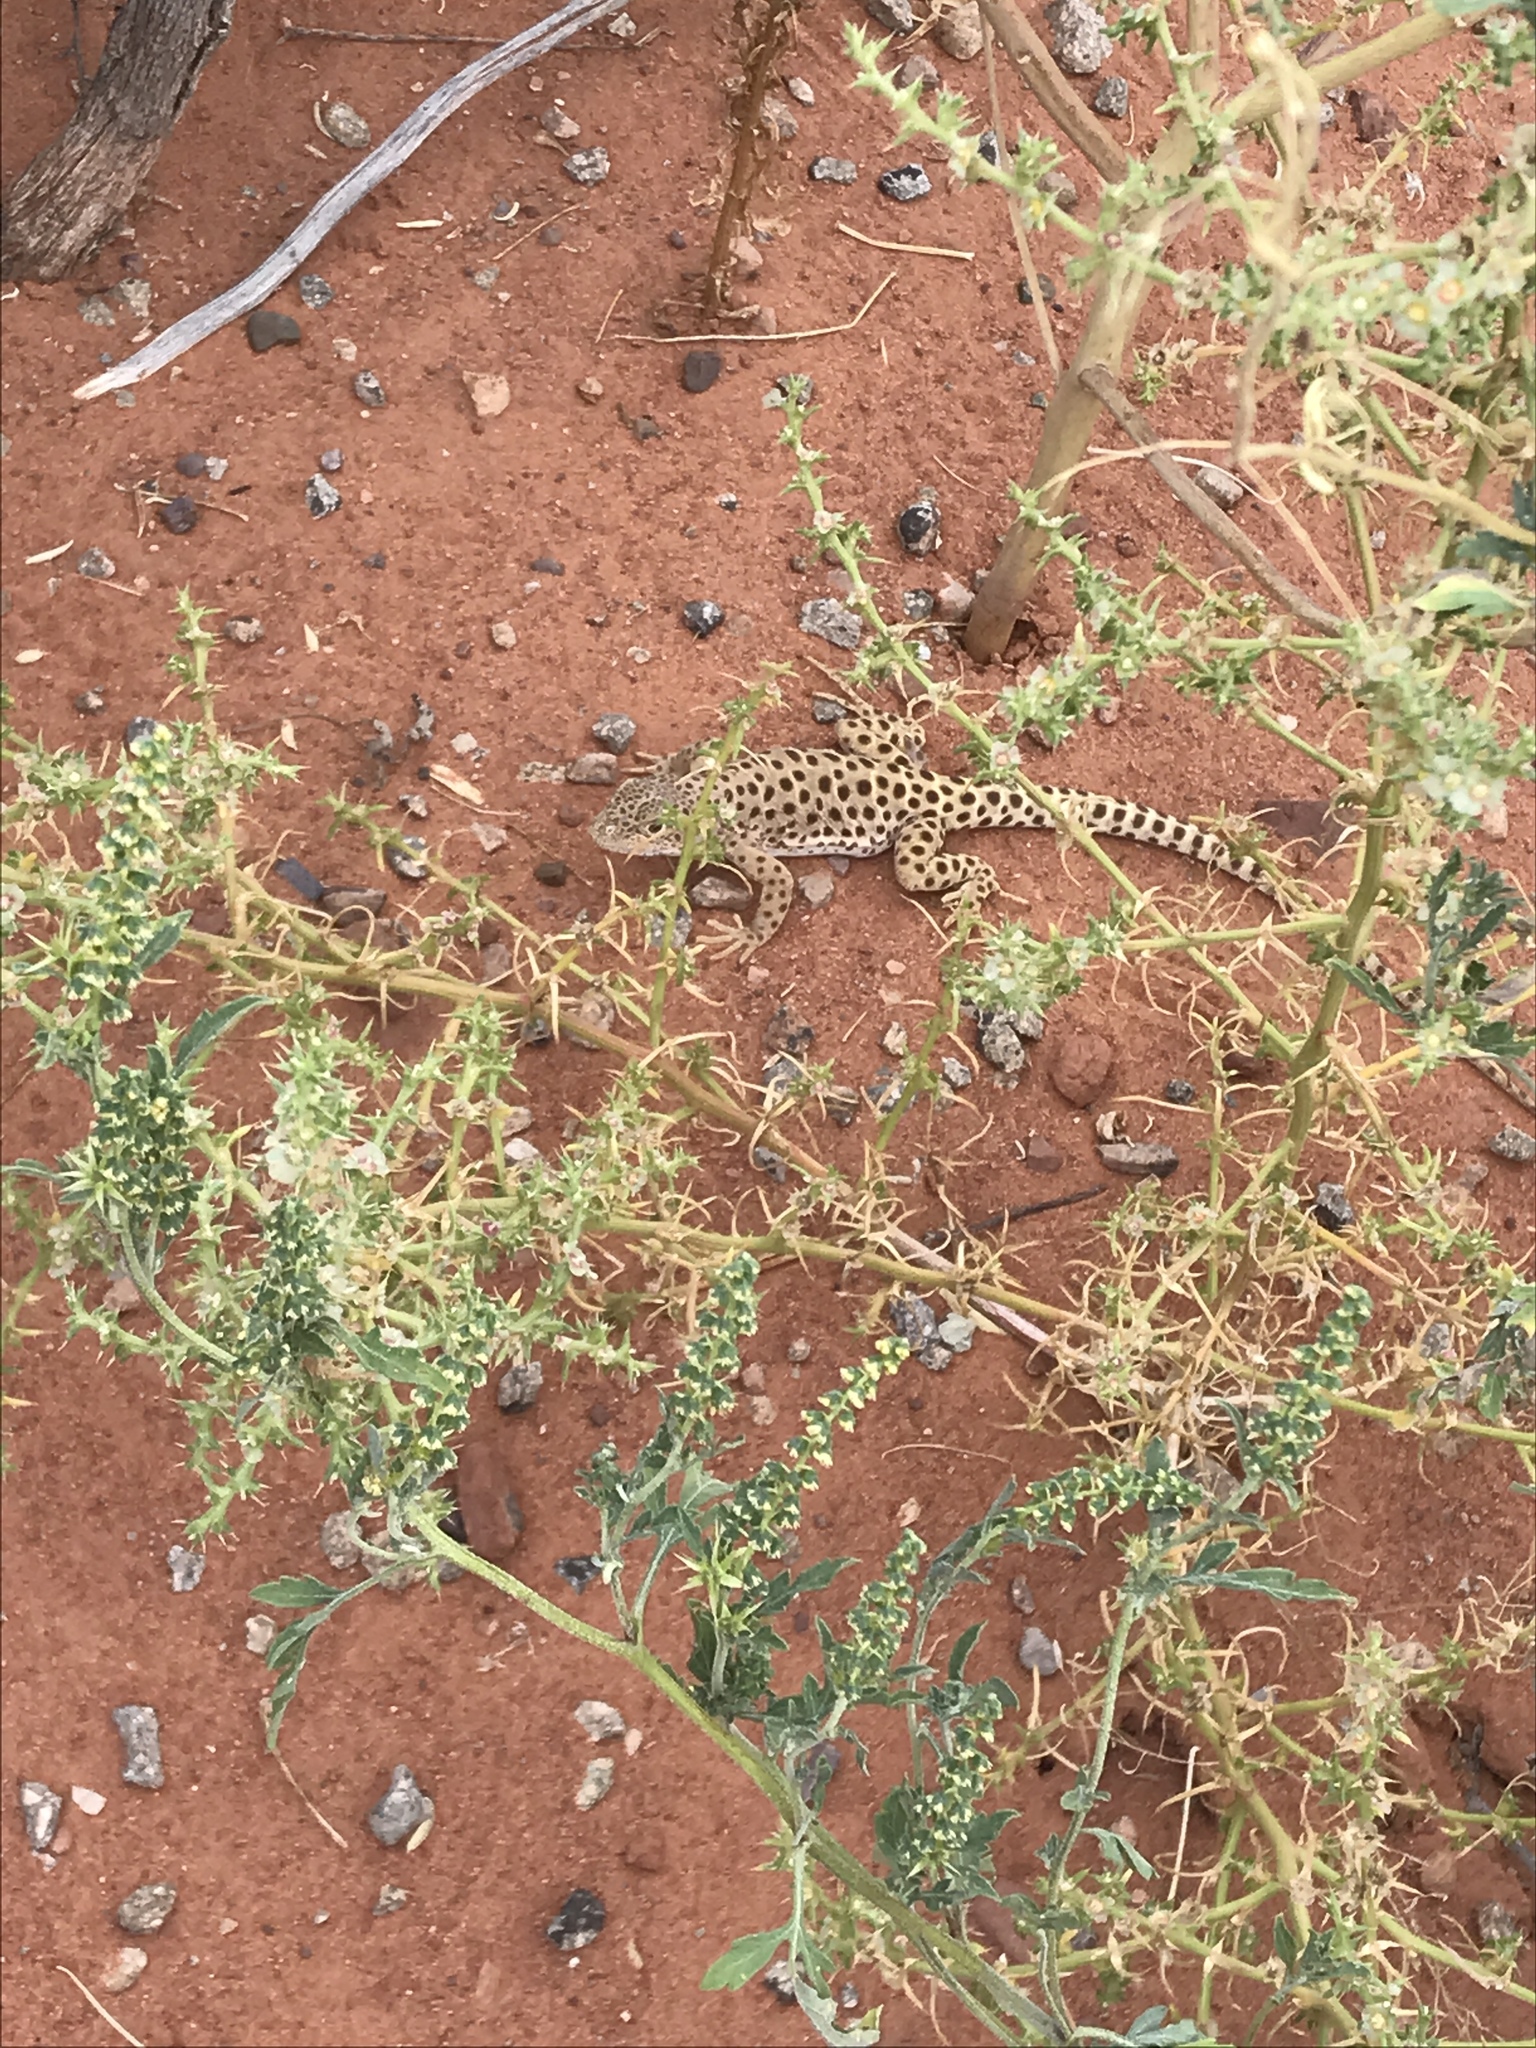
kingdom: Animalia
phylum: Chordata
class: Squamata
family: Crotaphytidae
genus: Gambelia
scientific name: Gambelia wislizenii
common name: Longnose leopard lizard
